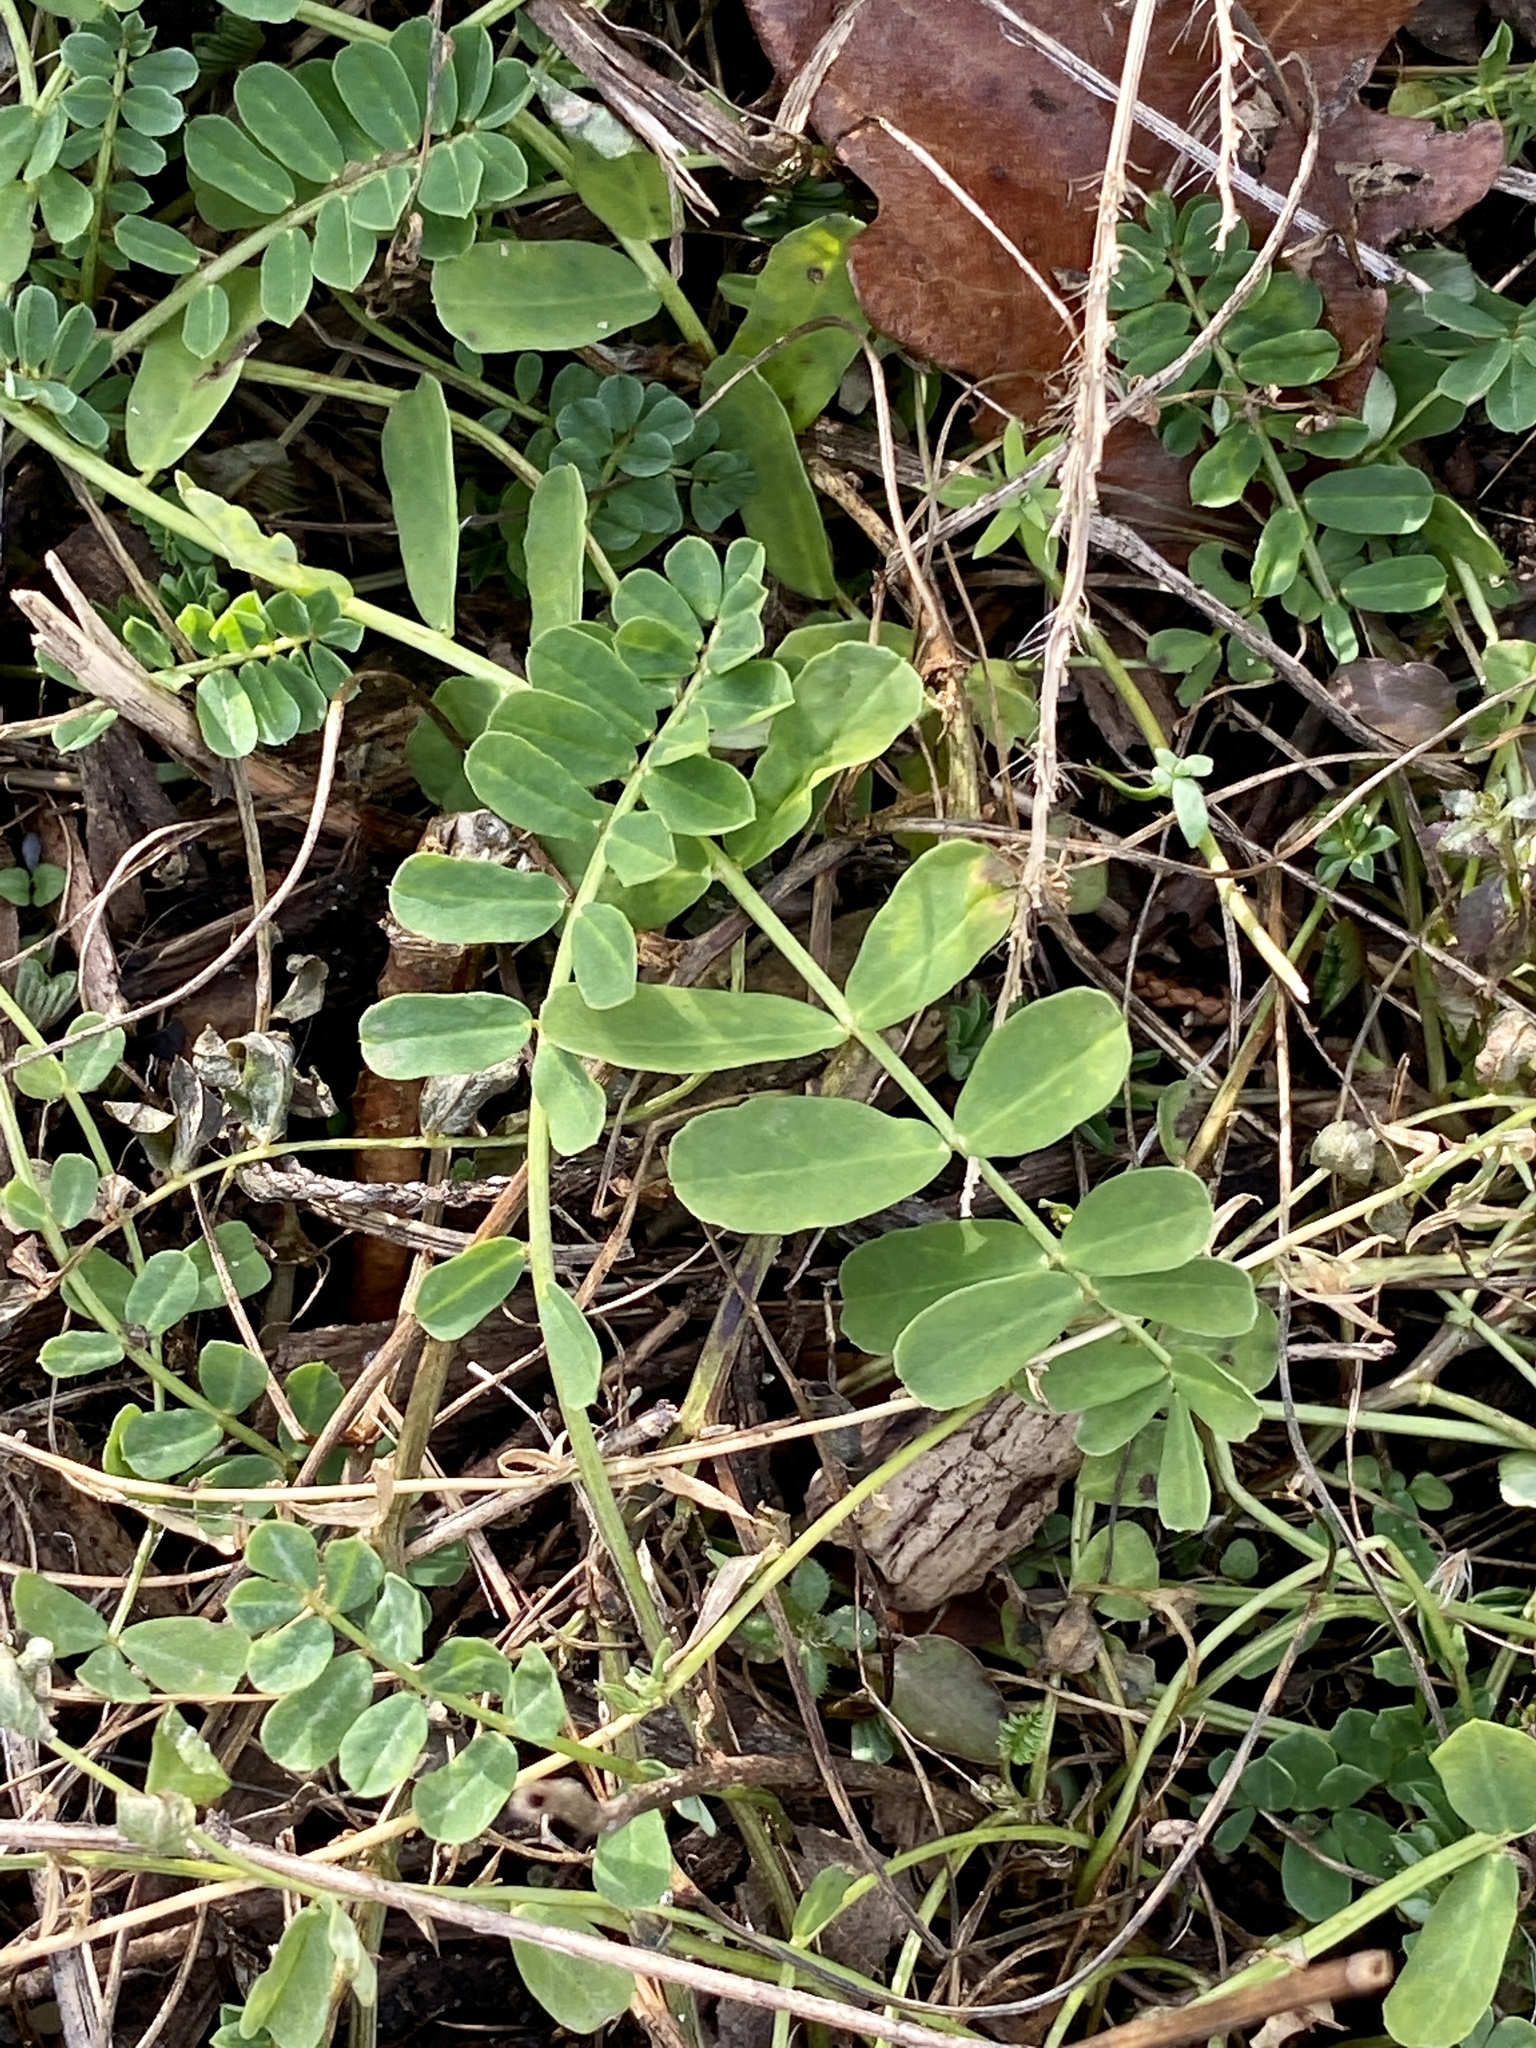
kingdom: Plantae
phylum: Tracheophyta
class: Magnoliopsida
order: Fabales
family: Fabaceae
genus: Coronilla
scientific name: Coronilla varia
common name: Crownvetch
